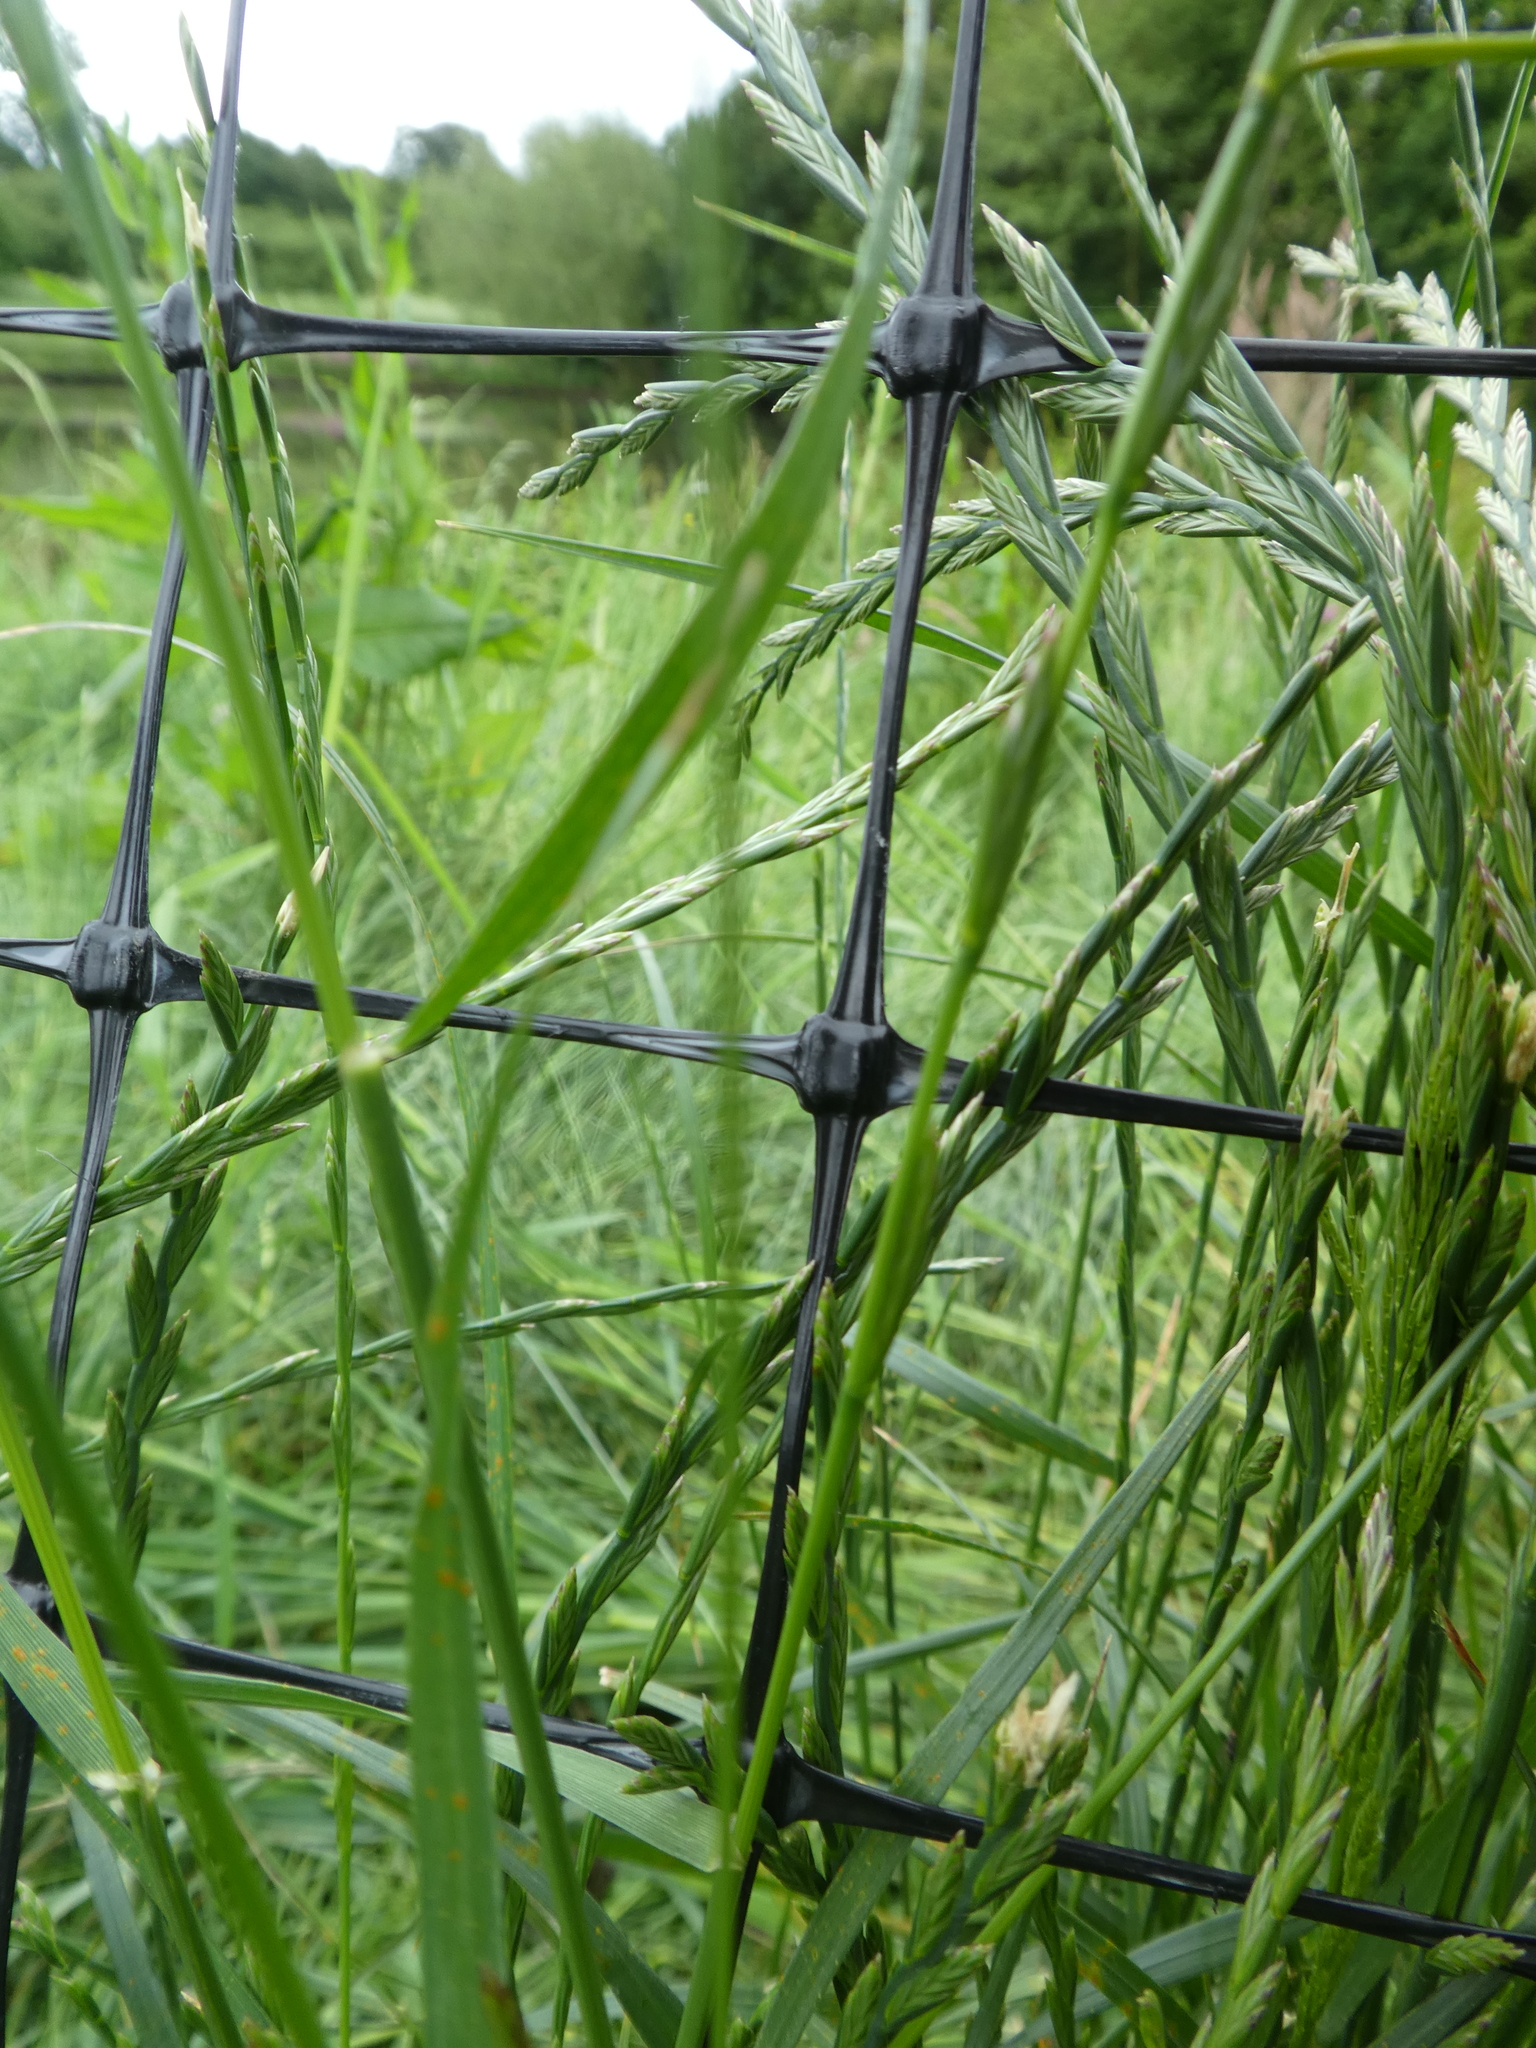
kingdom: Plantae
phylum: Tracheophyta
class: Liliopsida
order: Poales
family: Poaceae
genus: Lolium
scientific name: Lolium perenne
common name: Perennial ryegrass
